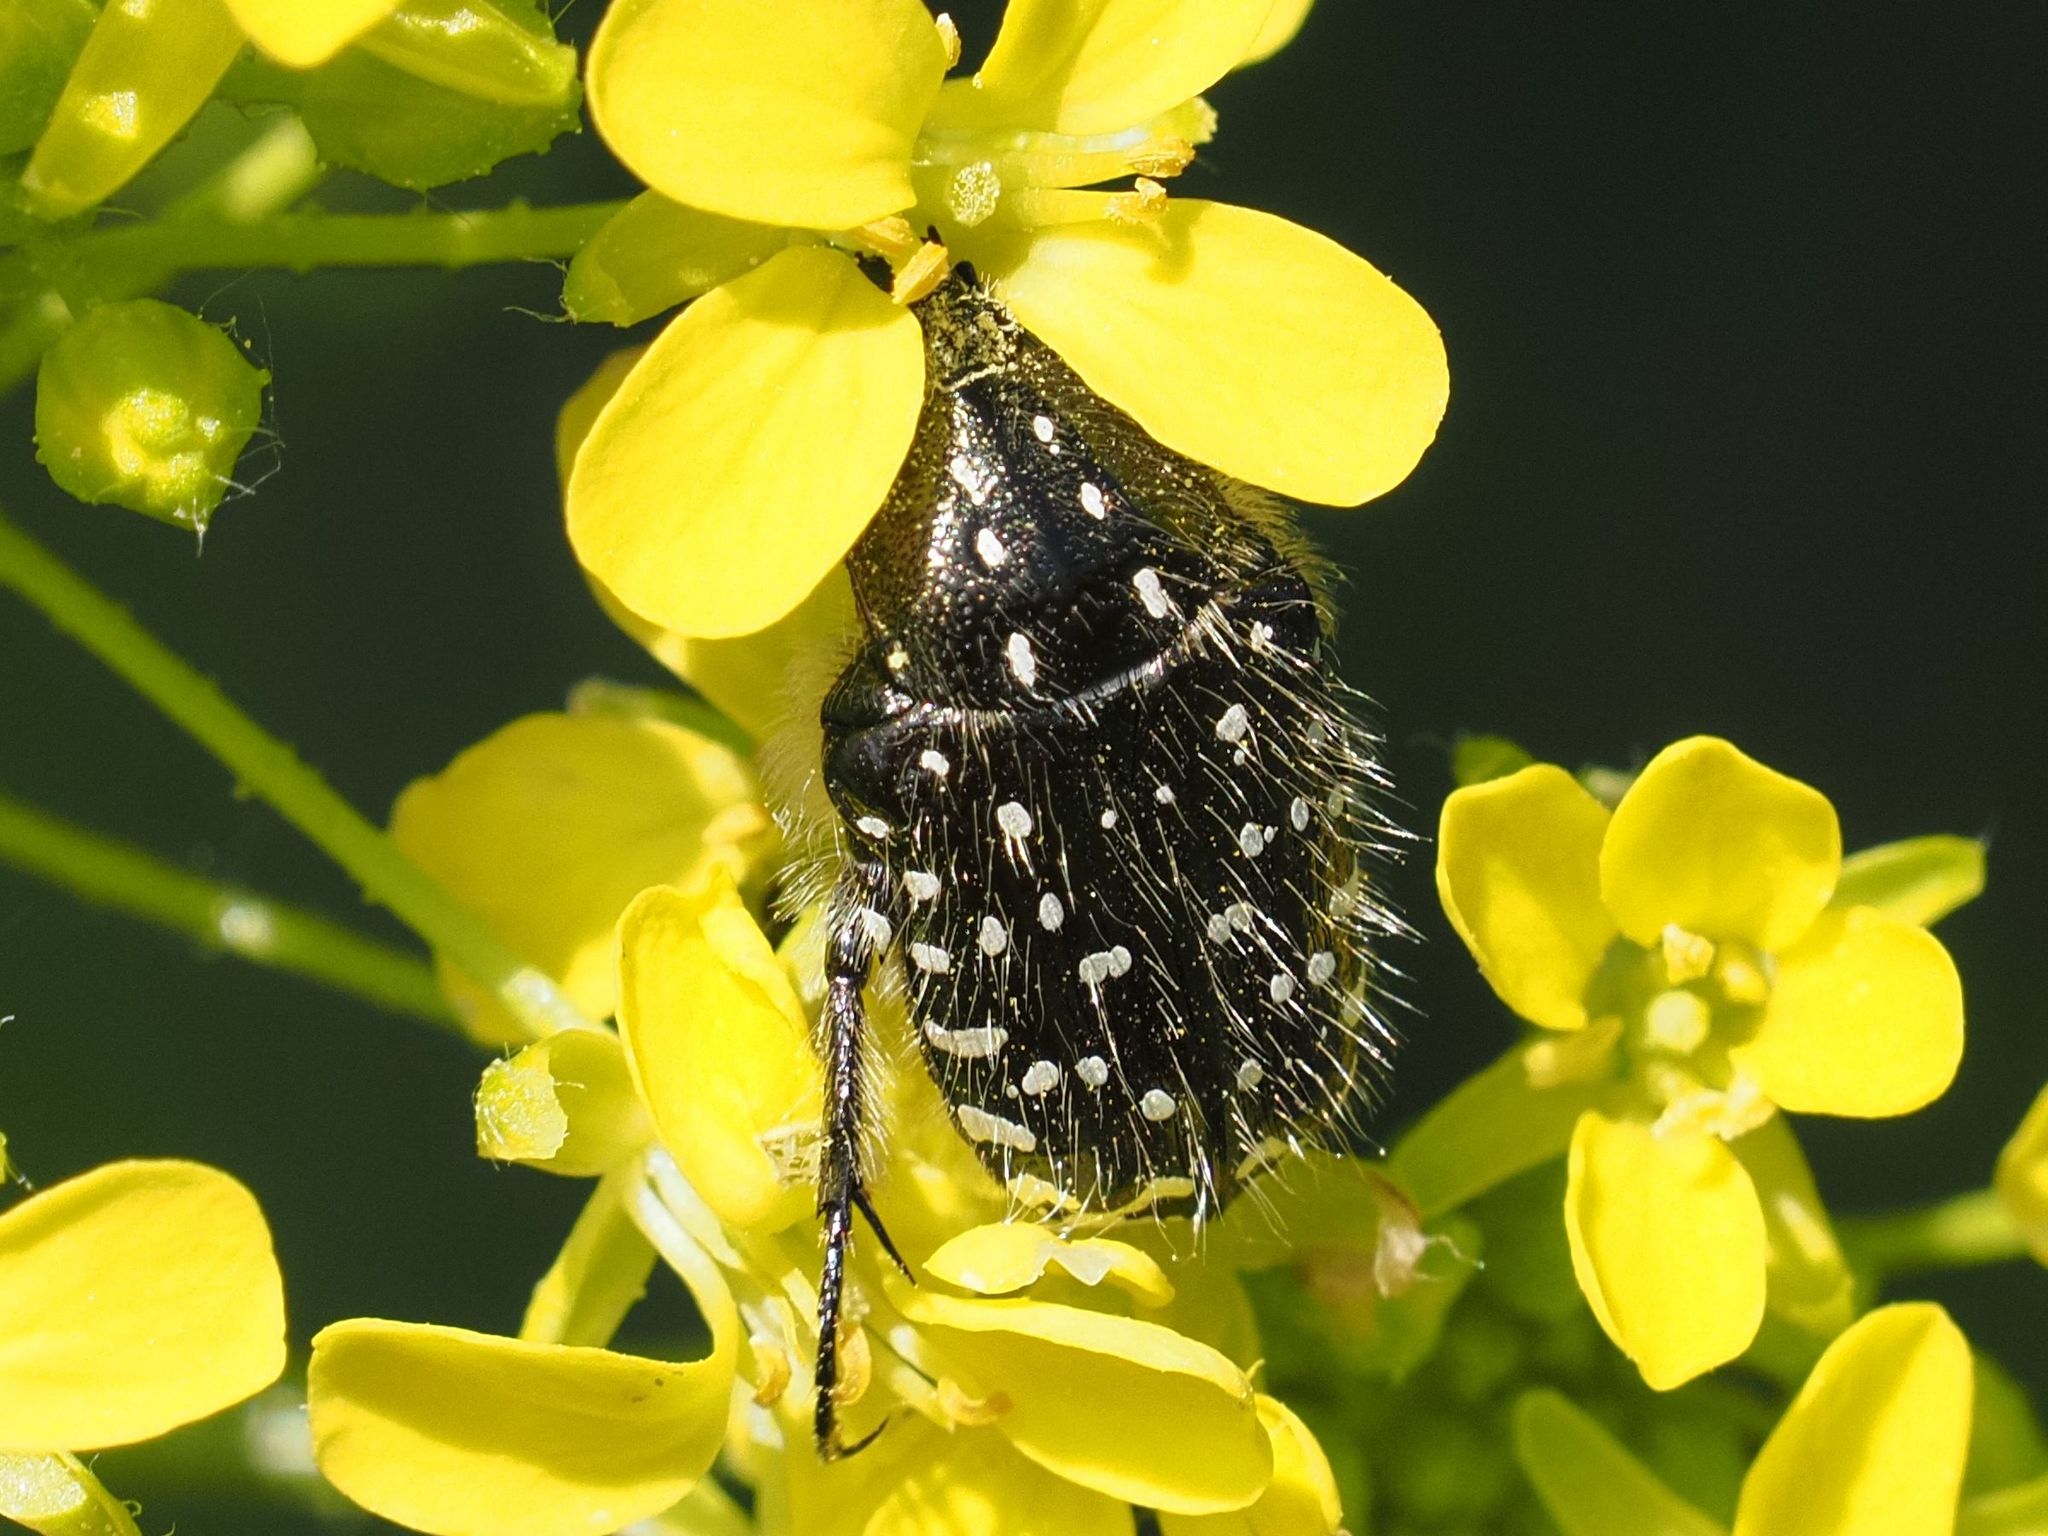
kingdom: Animalia
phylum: Arthropoda
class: Insecta
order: Coleoptera
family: Scarabaeidae
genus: Oxythyrea
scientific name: Oxythyrea funesta
